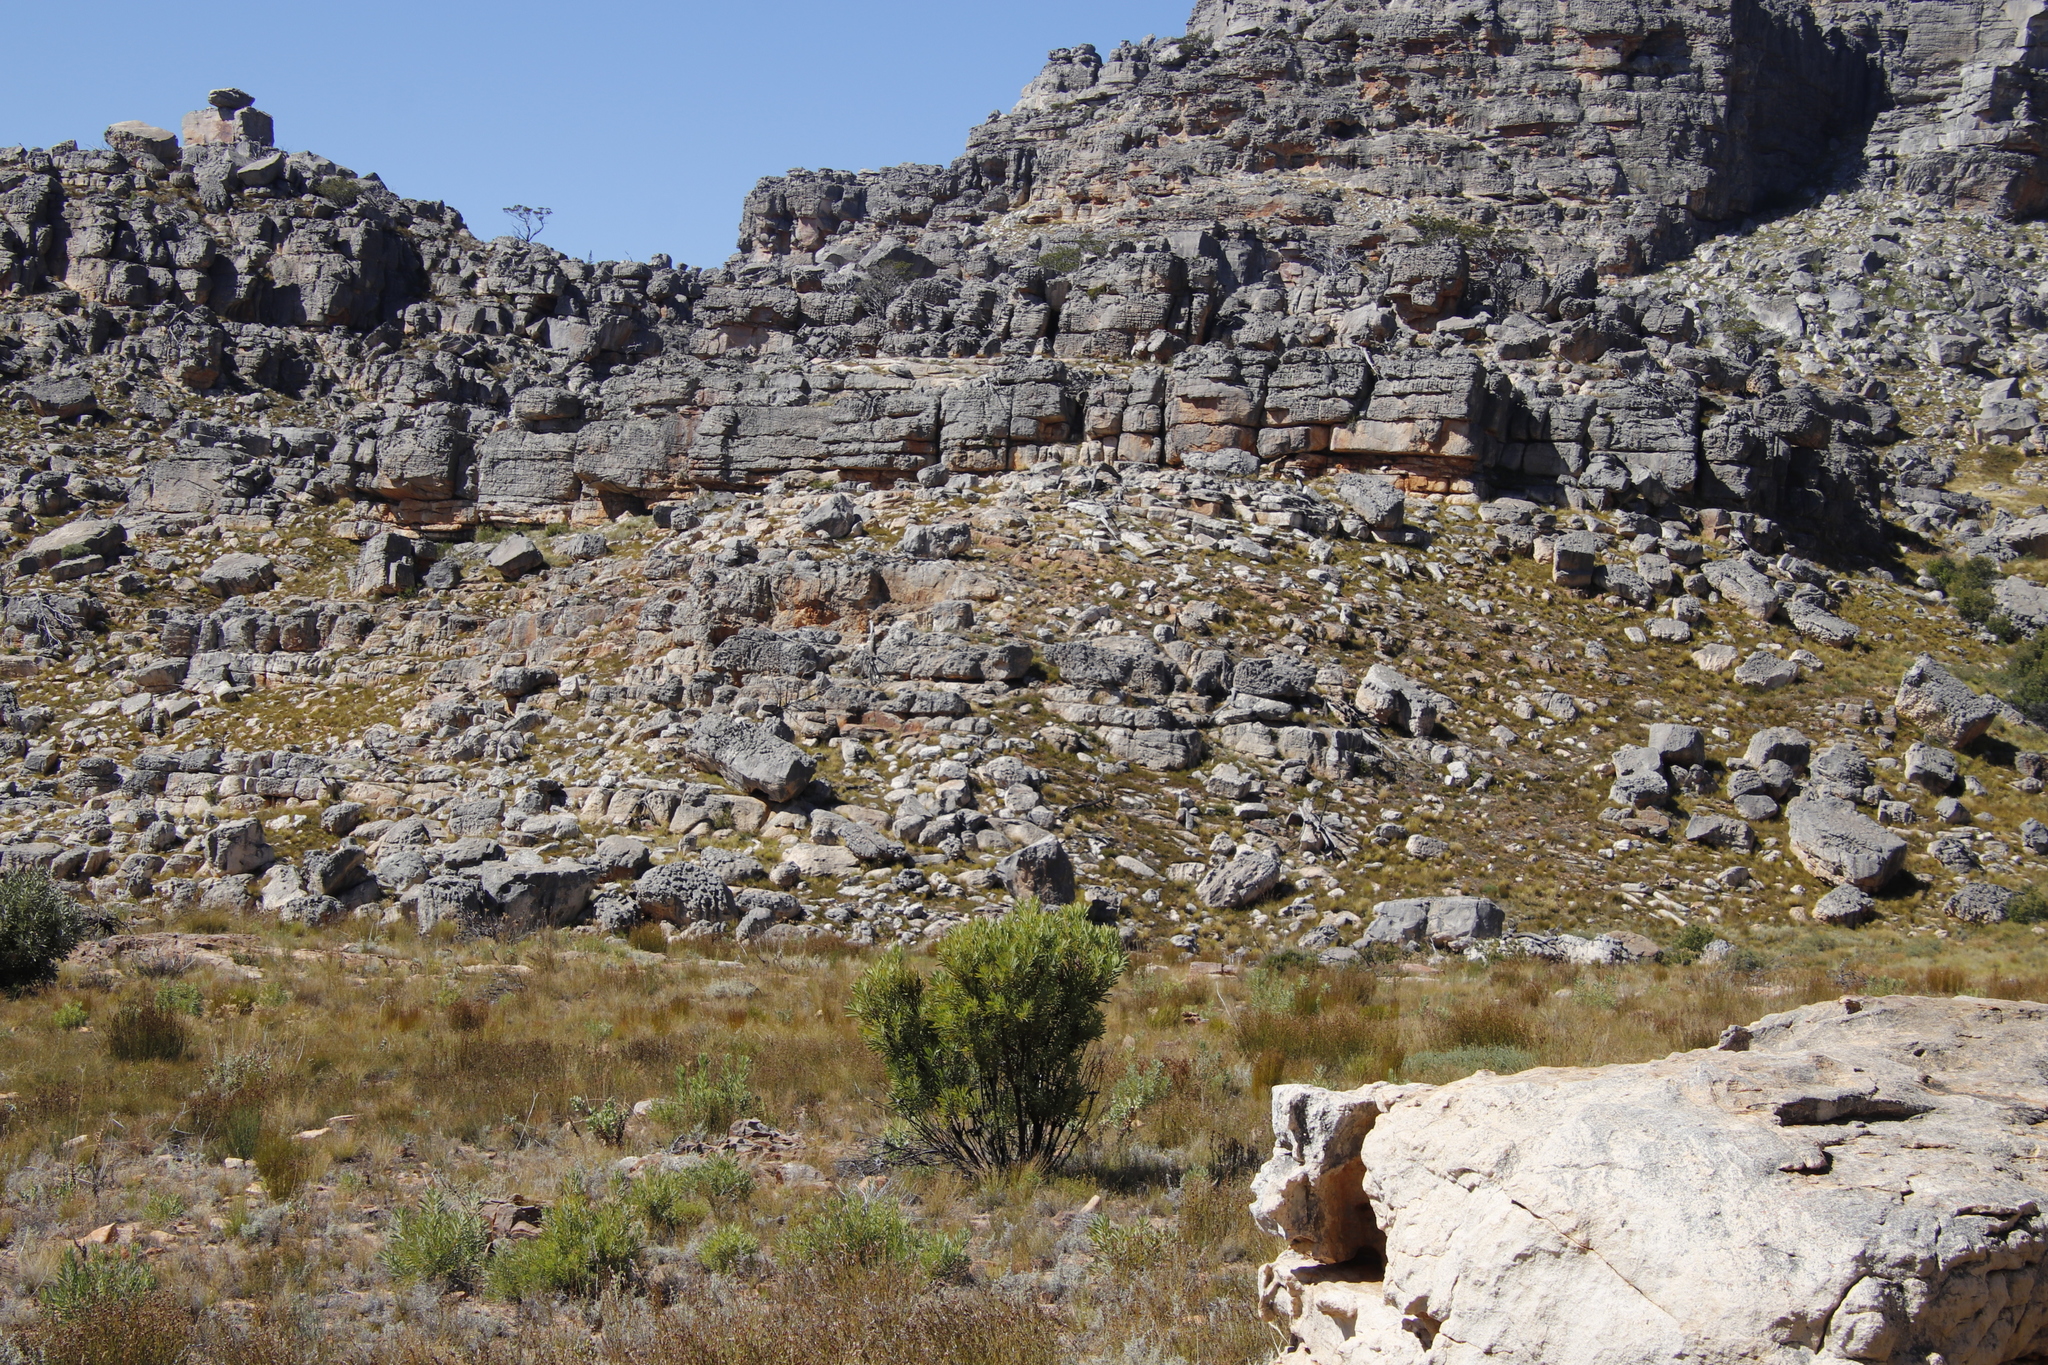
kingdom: Plantae
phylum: Tracheophyta
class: Magnoliopsida
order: Proteales
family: Proteaceae
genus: Protea
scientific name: Protea repens
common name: Sugarbush
